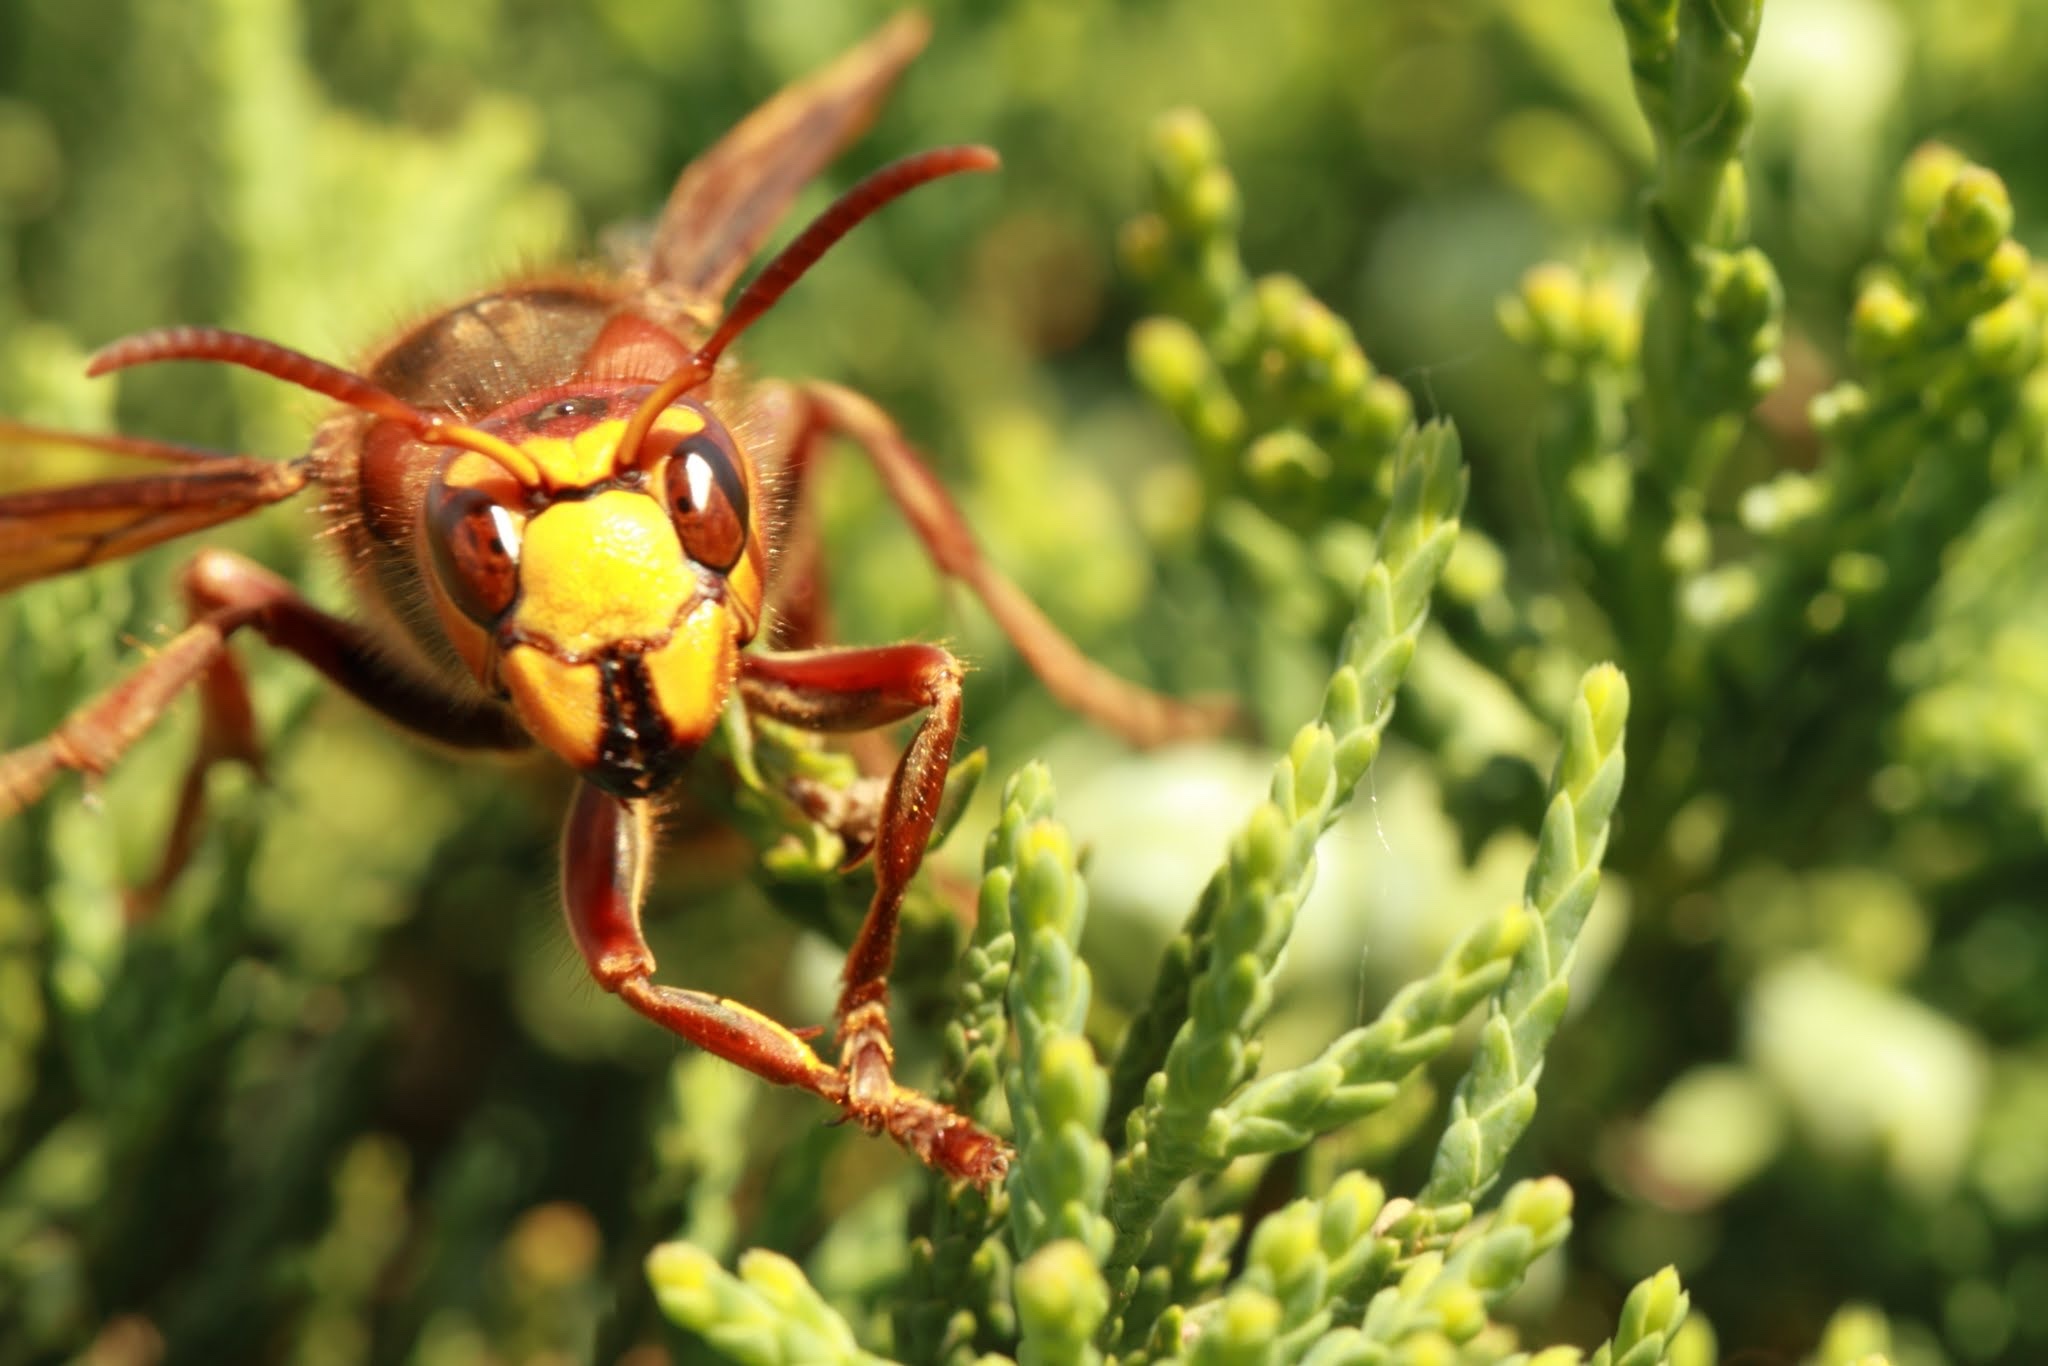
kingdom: Animalia
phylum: Arthropoda
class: Insecta
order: Hymenoptera
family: Vespidae
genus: Vespa
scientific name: Vespa crabro
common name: Hornet
